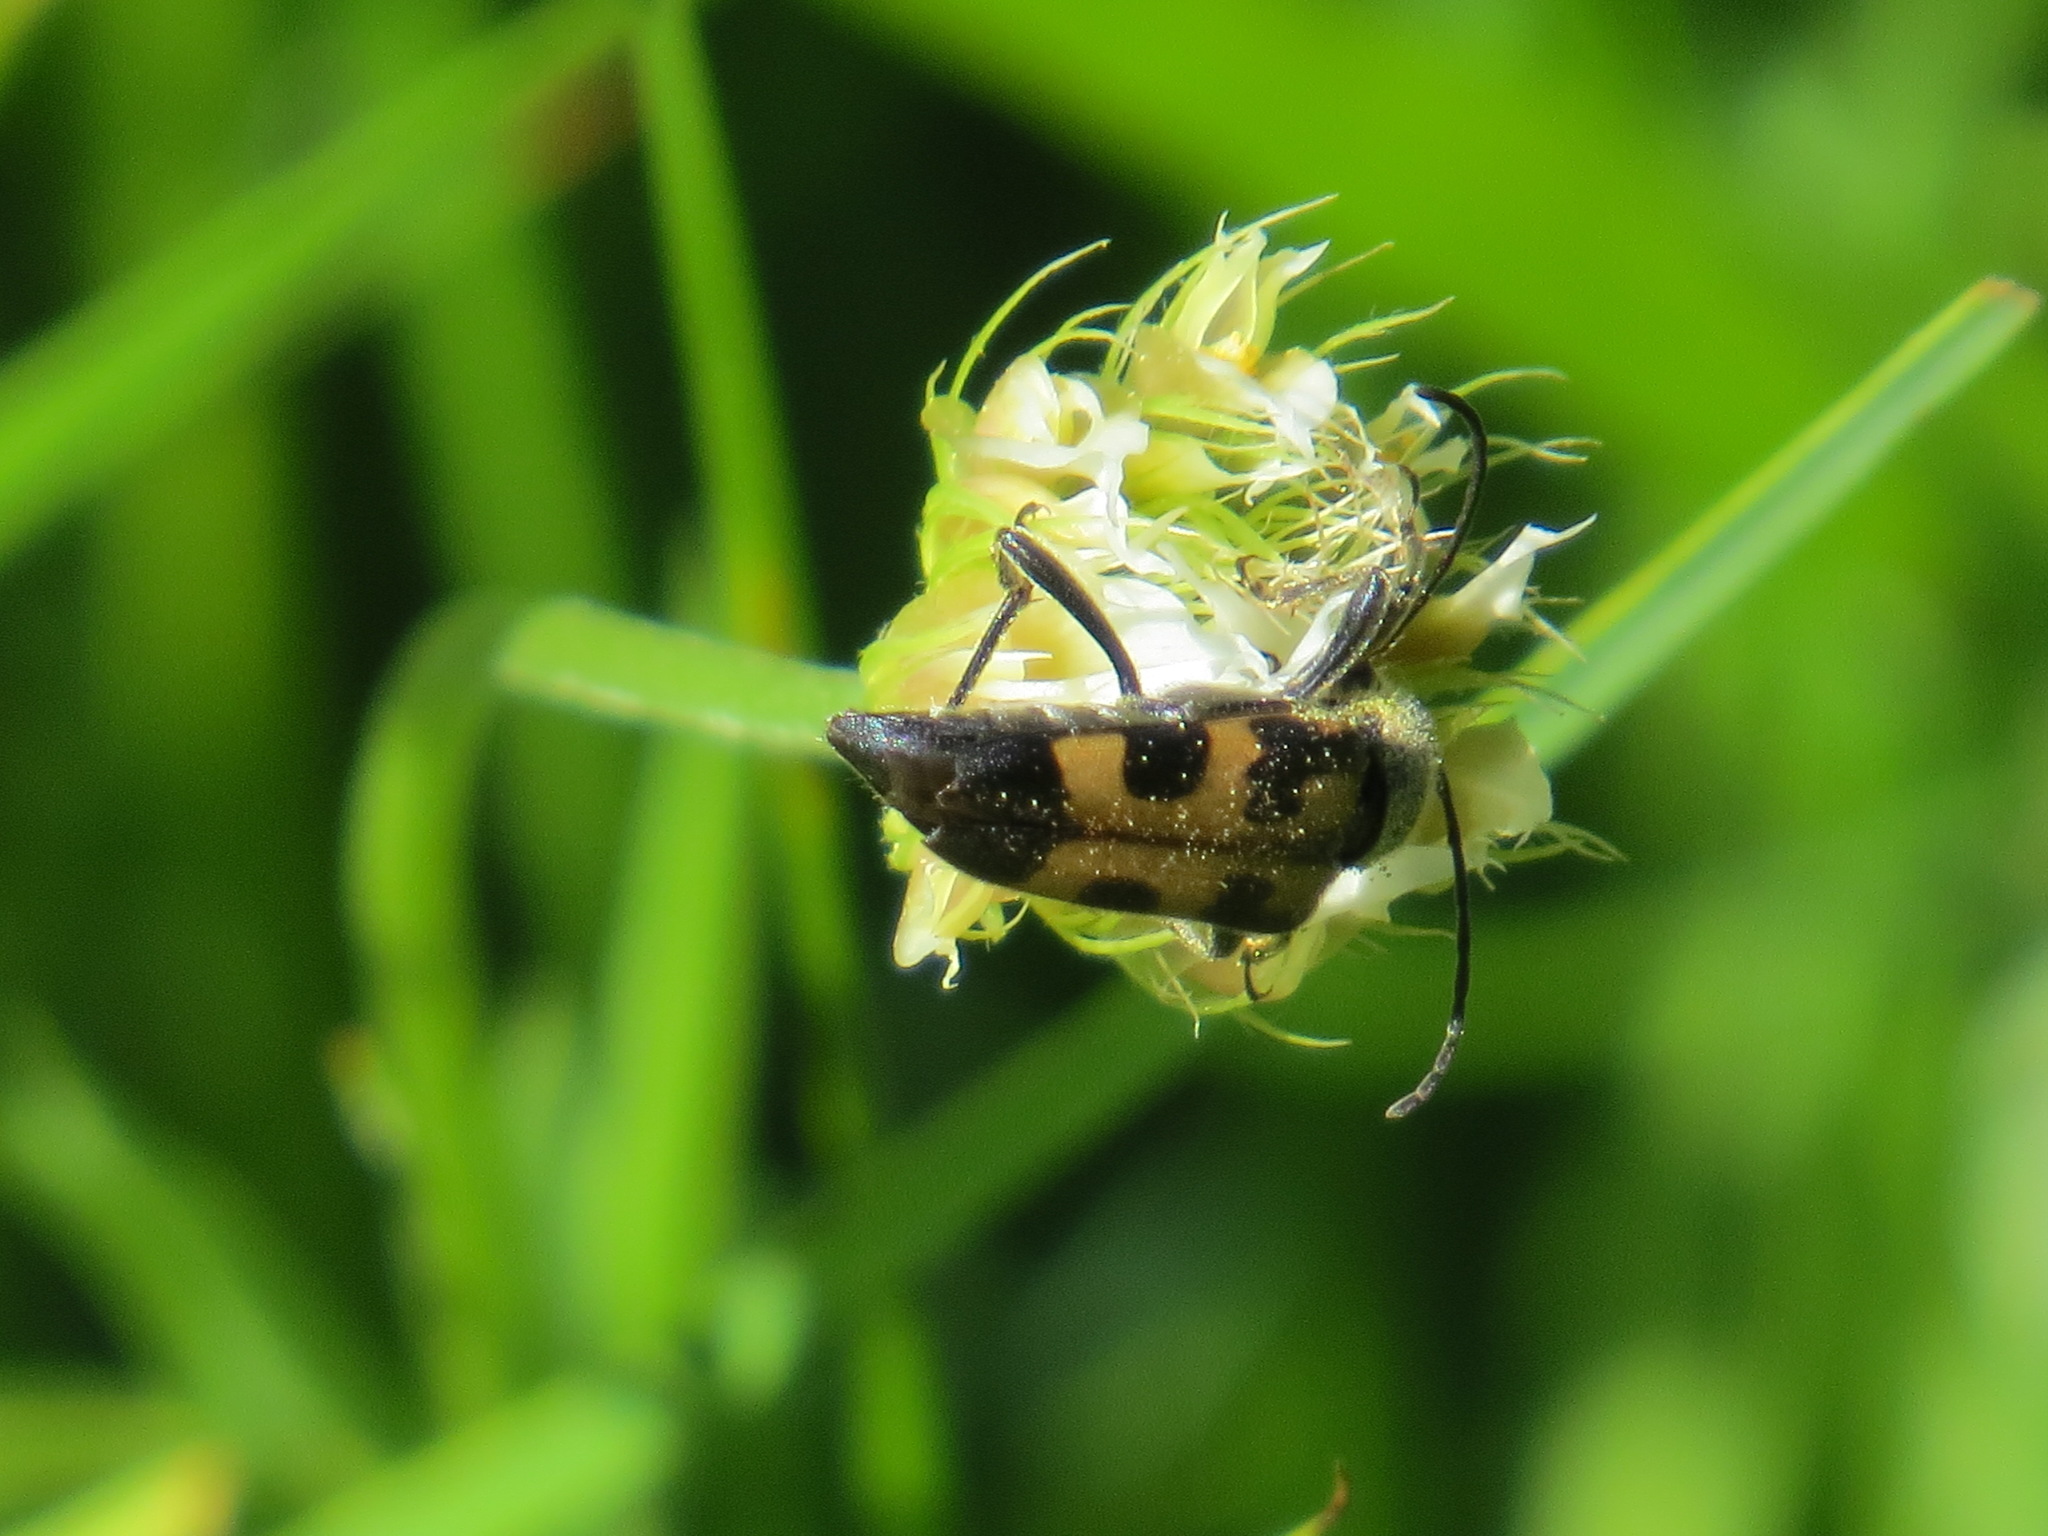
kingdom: Animalia
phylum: Arthropoda
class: Insecta
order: Coleoptera
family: Cerambycidae
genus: Judolia
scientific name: Judolia instabilis
